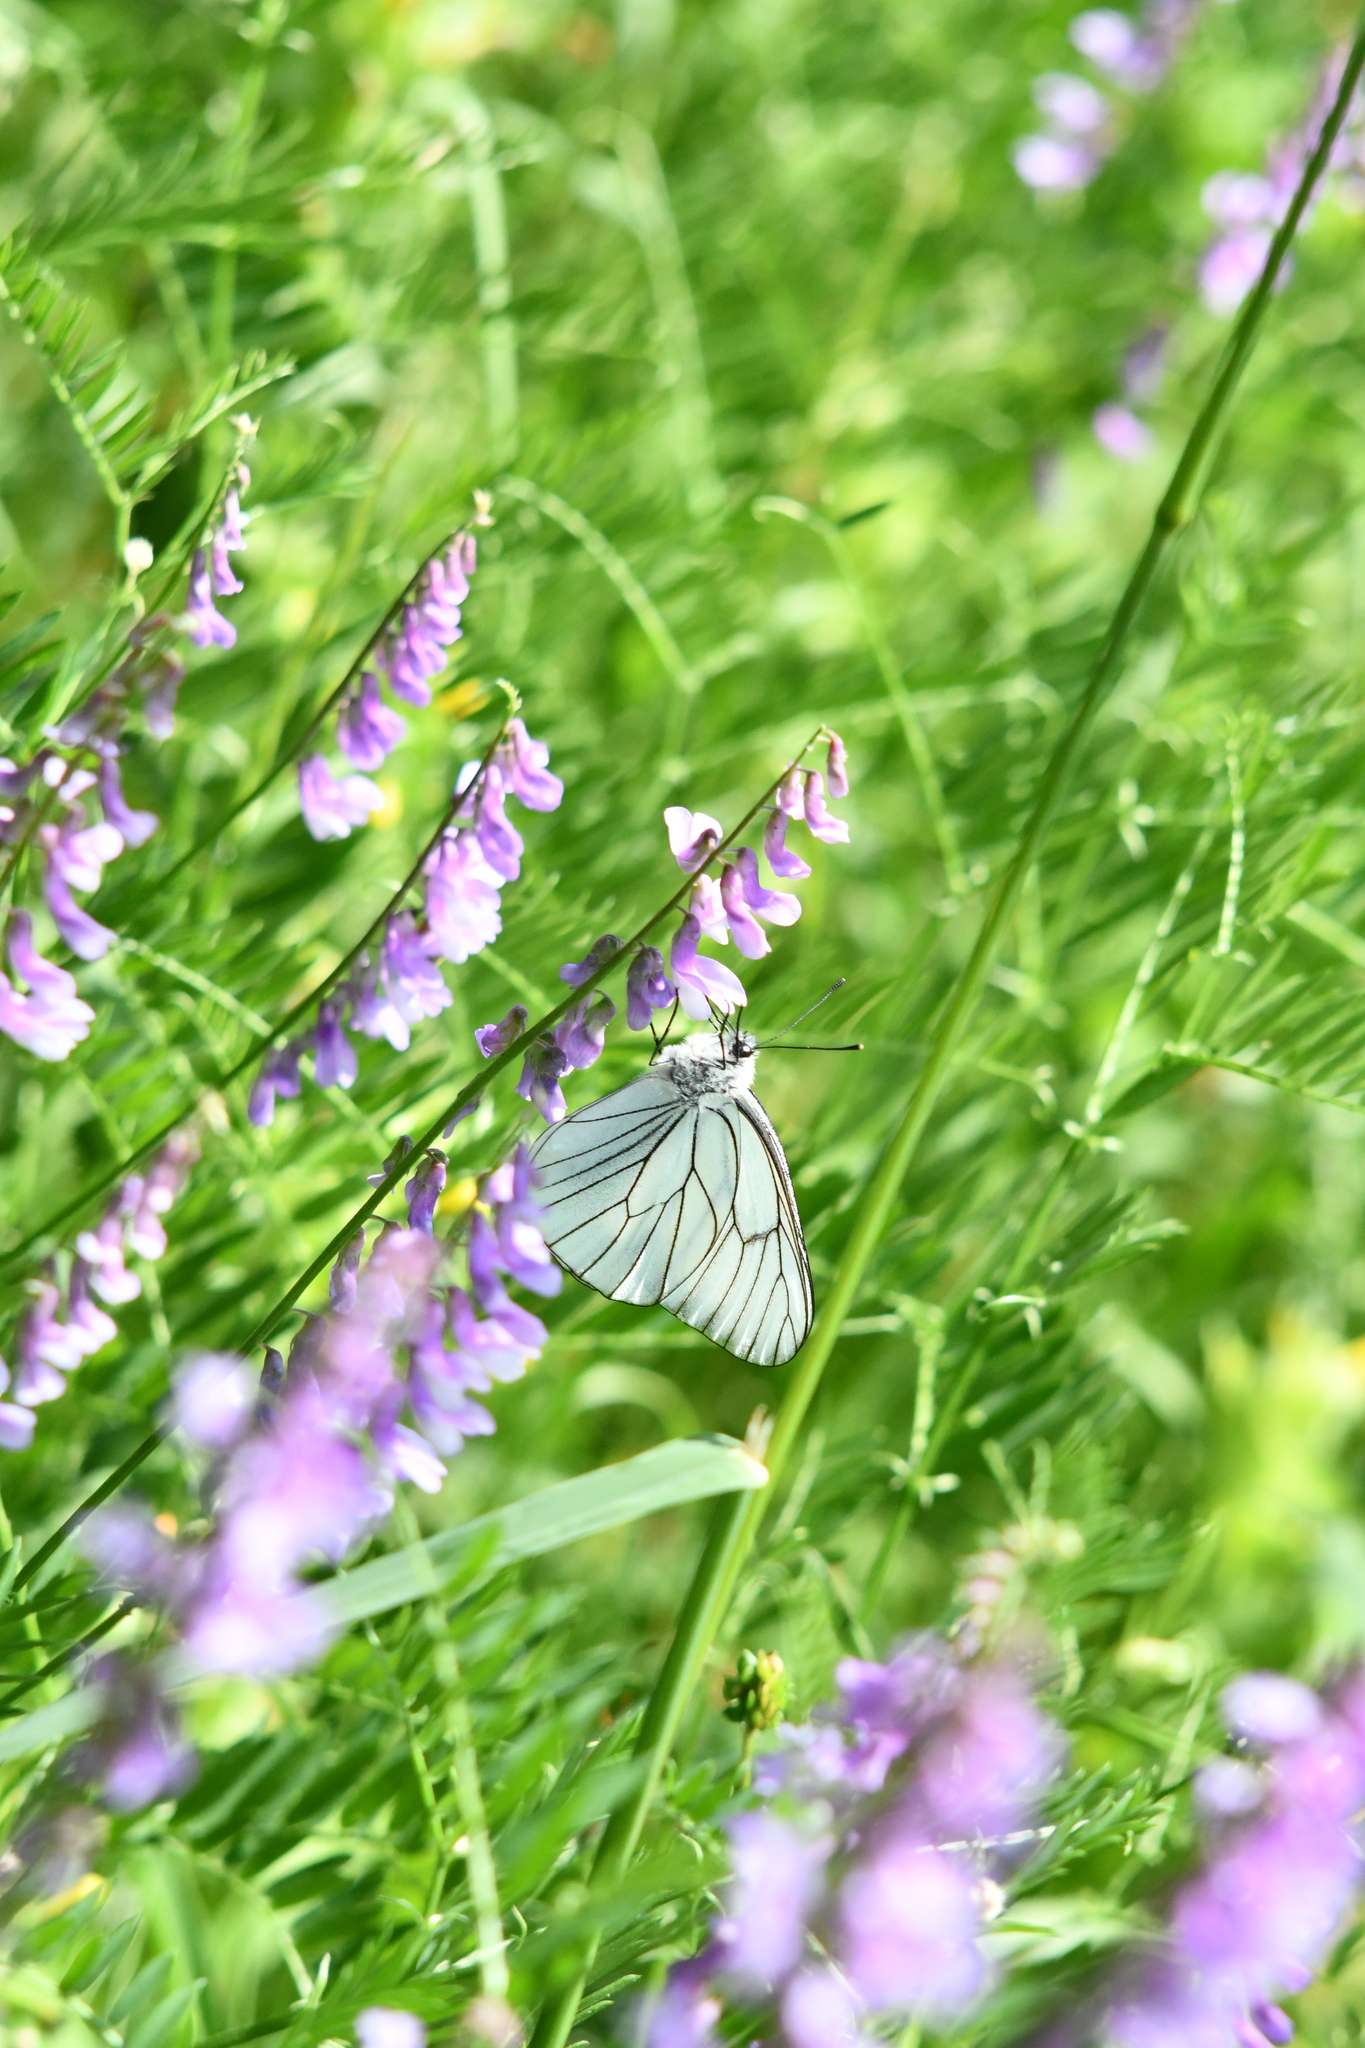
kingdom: Animalia
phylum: Arthropoda
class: Insecta
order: Lepidoptera
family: Pieridae
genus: Aporia
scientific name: Aporia crataegi
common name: Black-veined white
